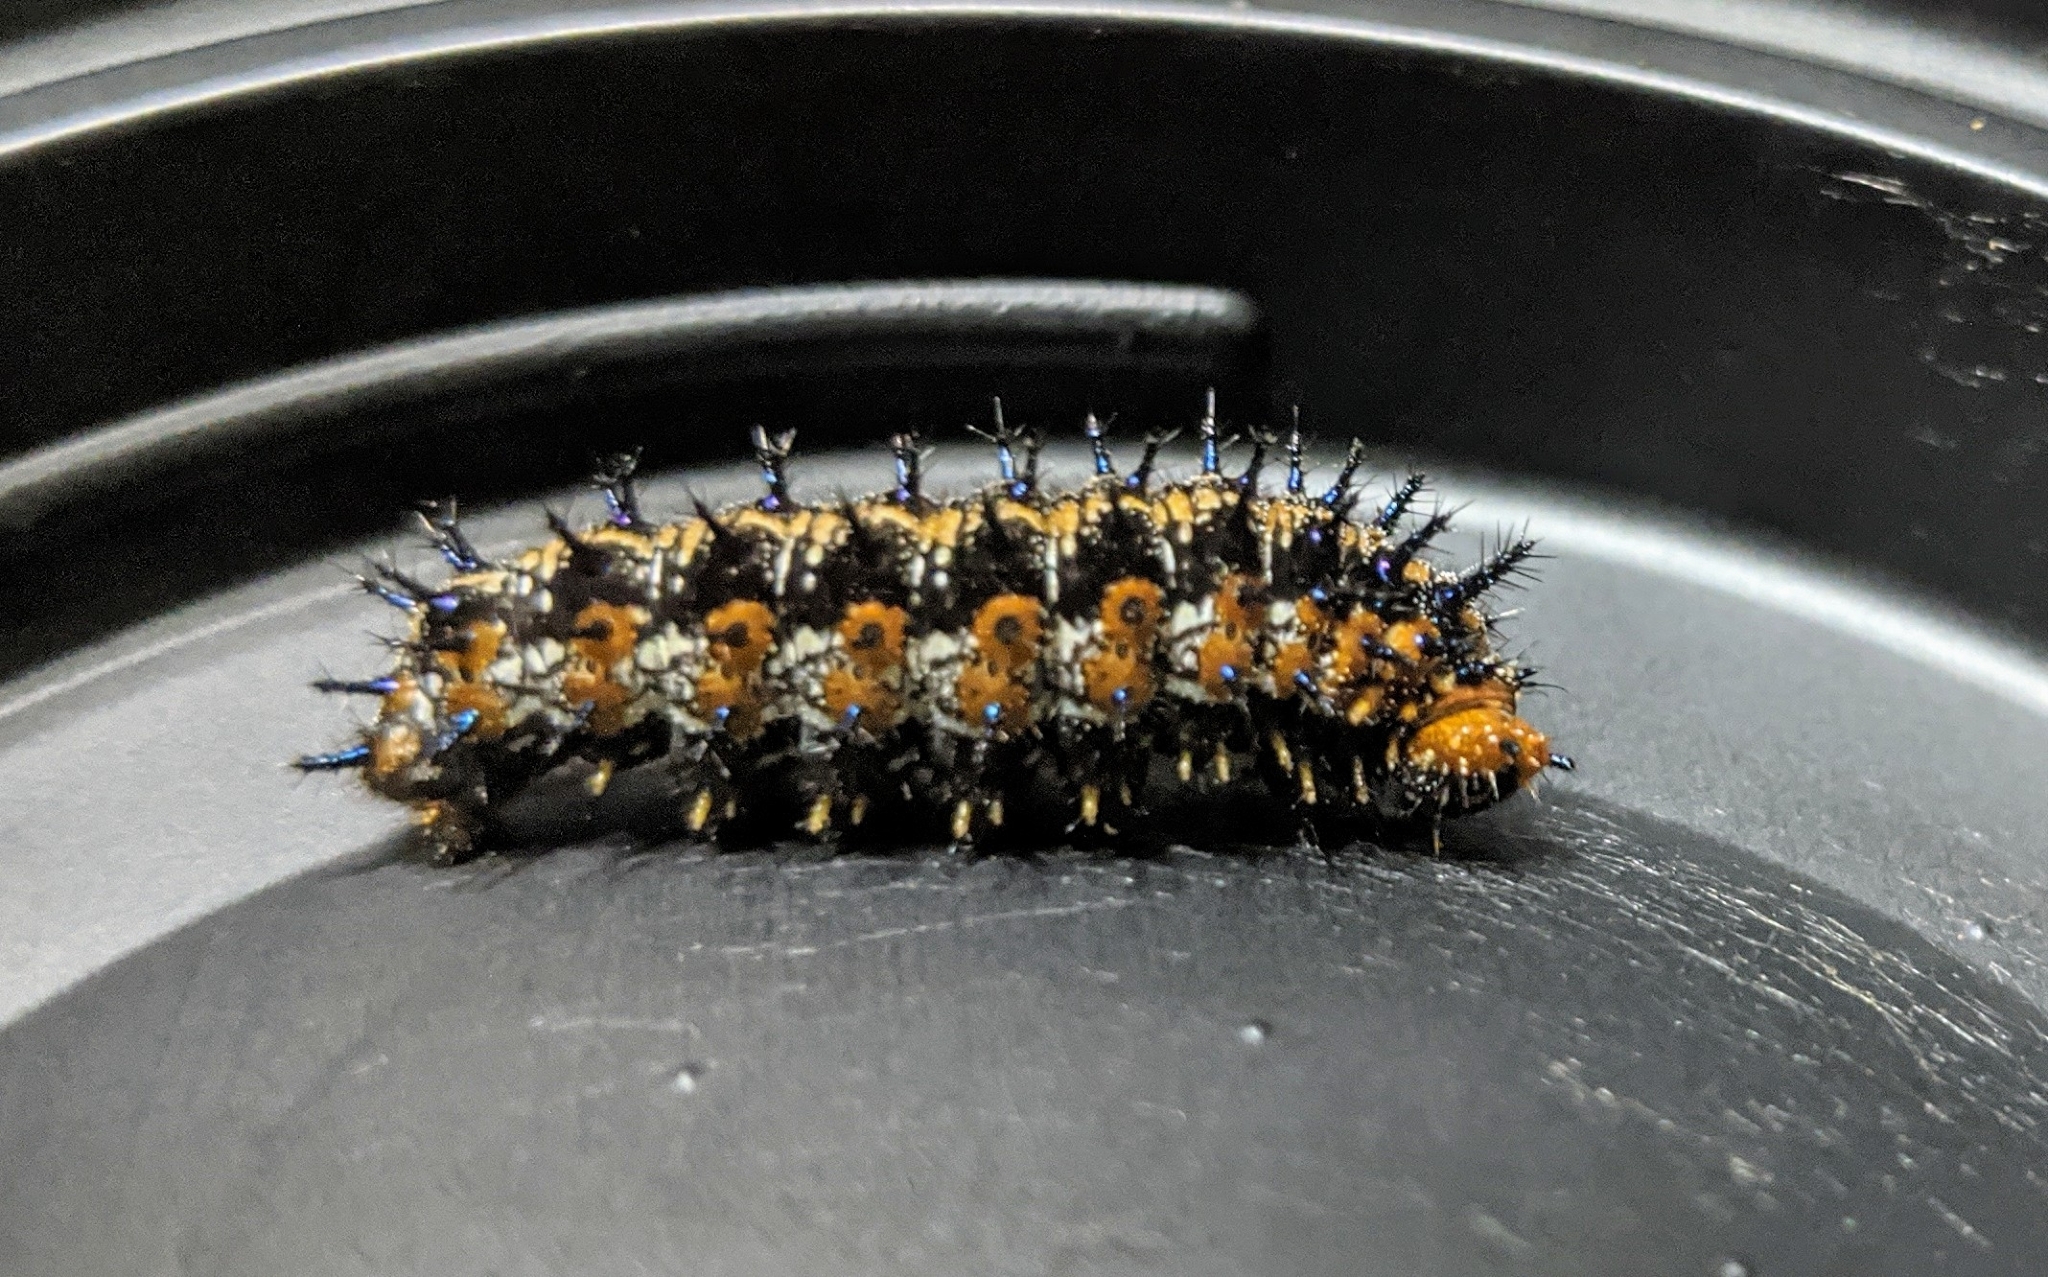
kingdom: Animalia
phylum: Arthropoda
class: Insecta
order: Lepidoptera
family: Nymphalidae
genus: Junonia
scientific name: Junonia coenia
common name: Common buckeye
